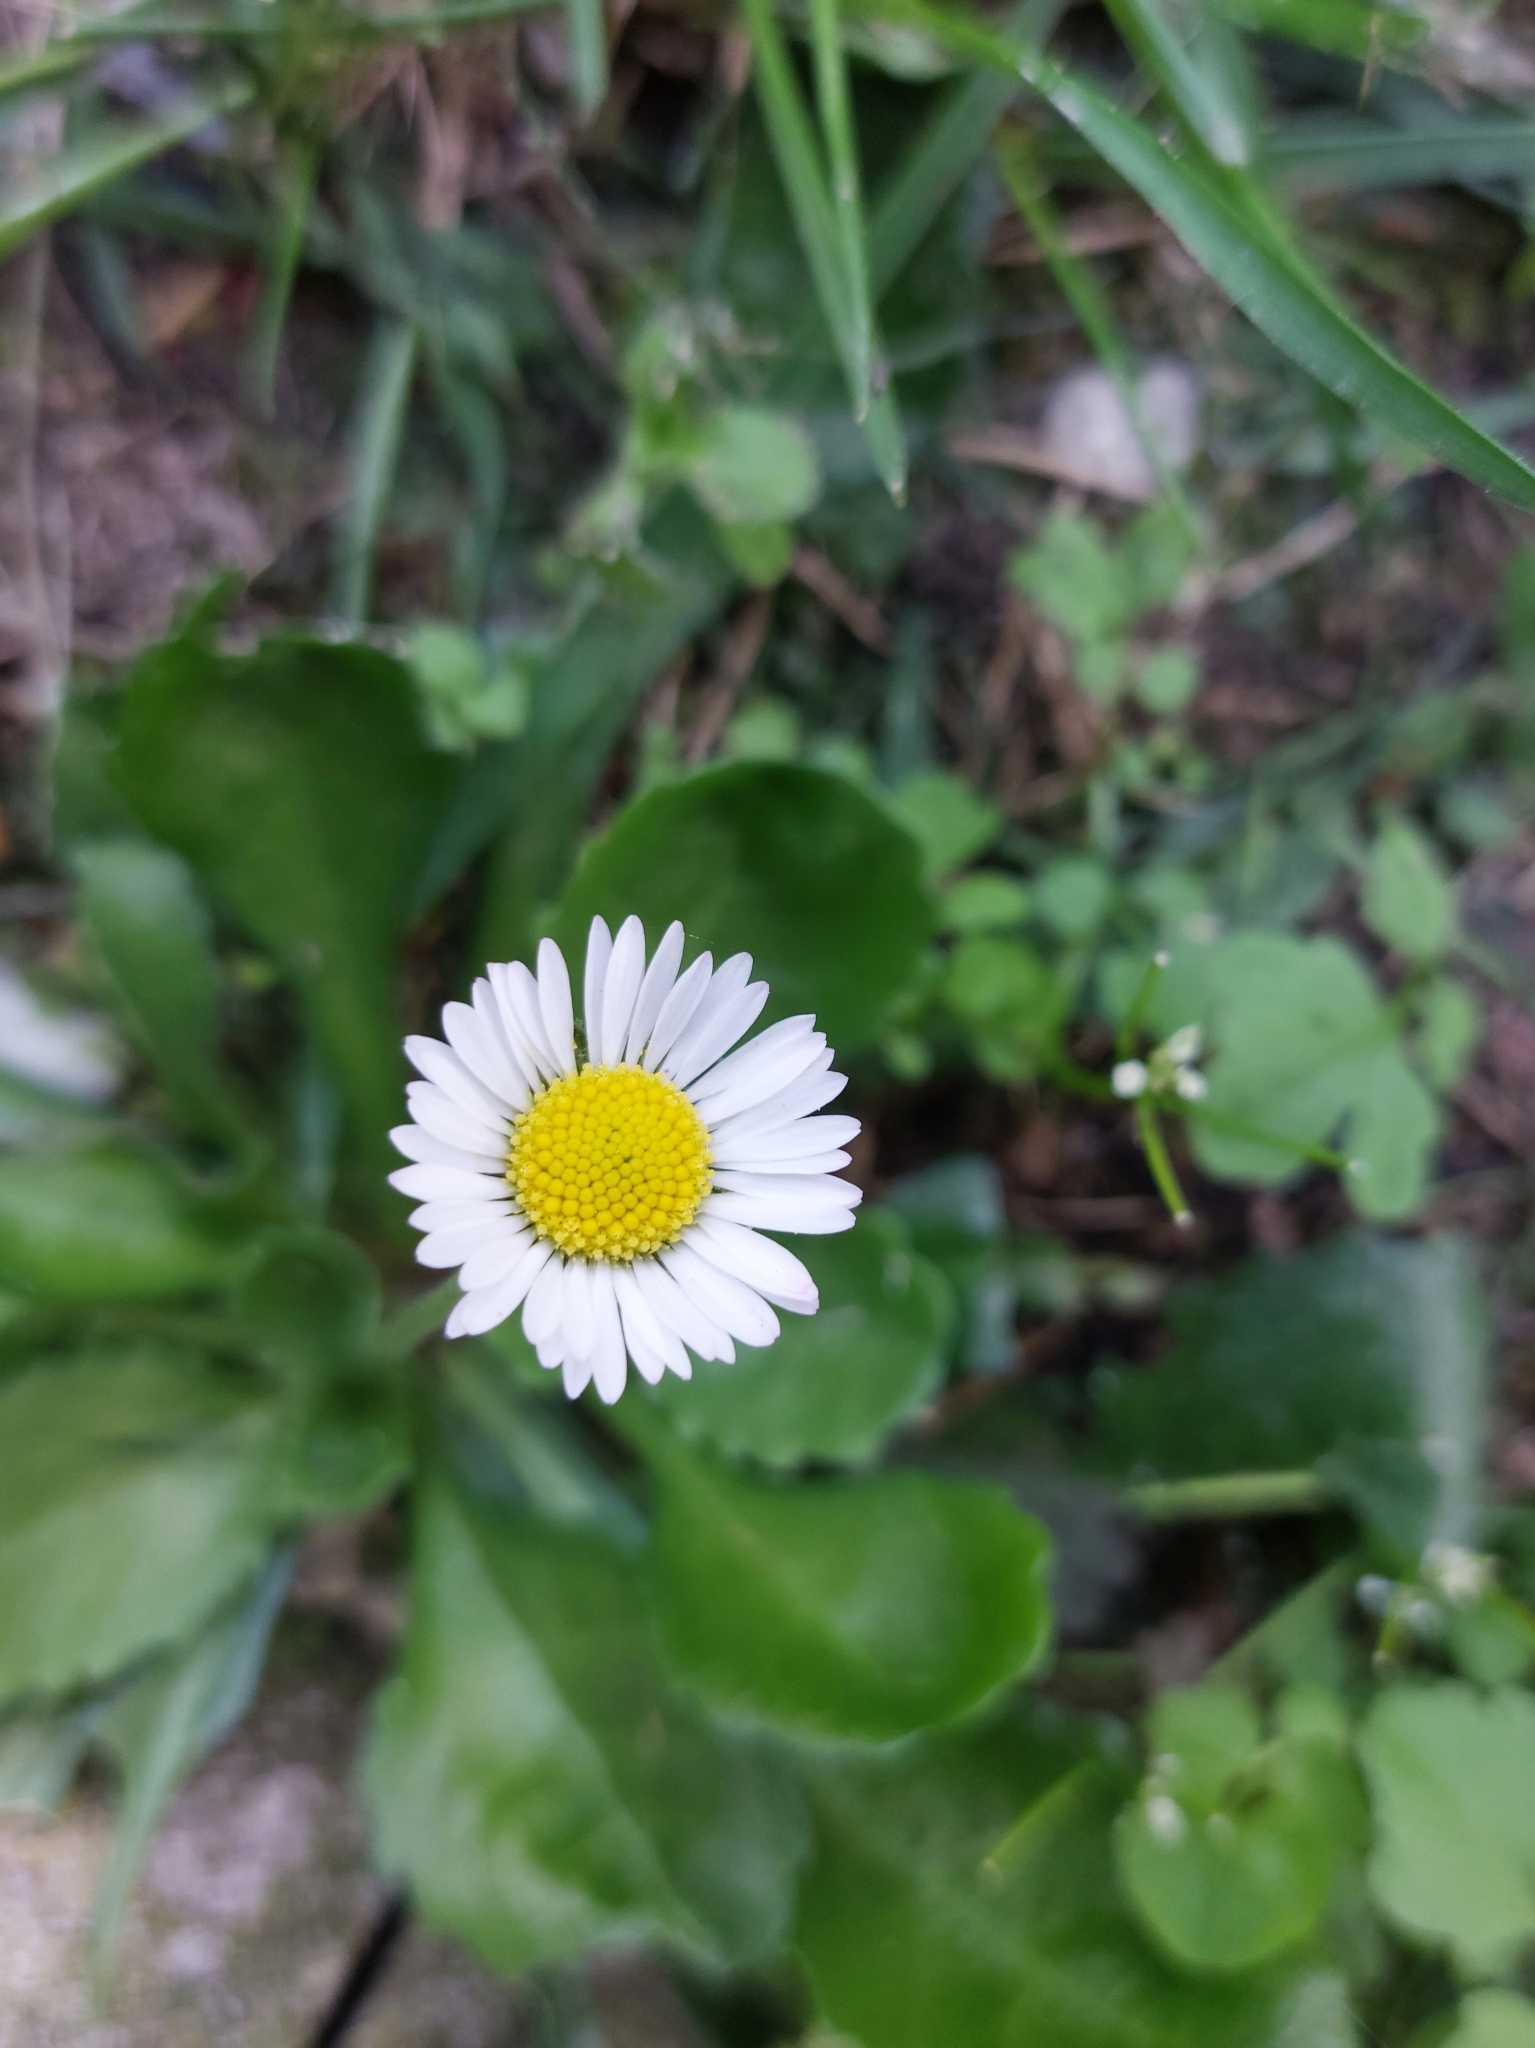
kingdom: Plantae
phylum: Tracheophyta
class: Magnoliopsida
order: Asterales
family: Asteraceae
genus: Bellis
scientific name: Bellis perennis
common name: Lawndaisy
